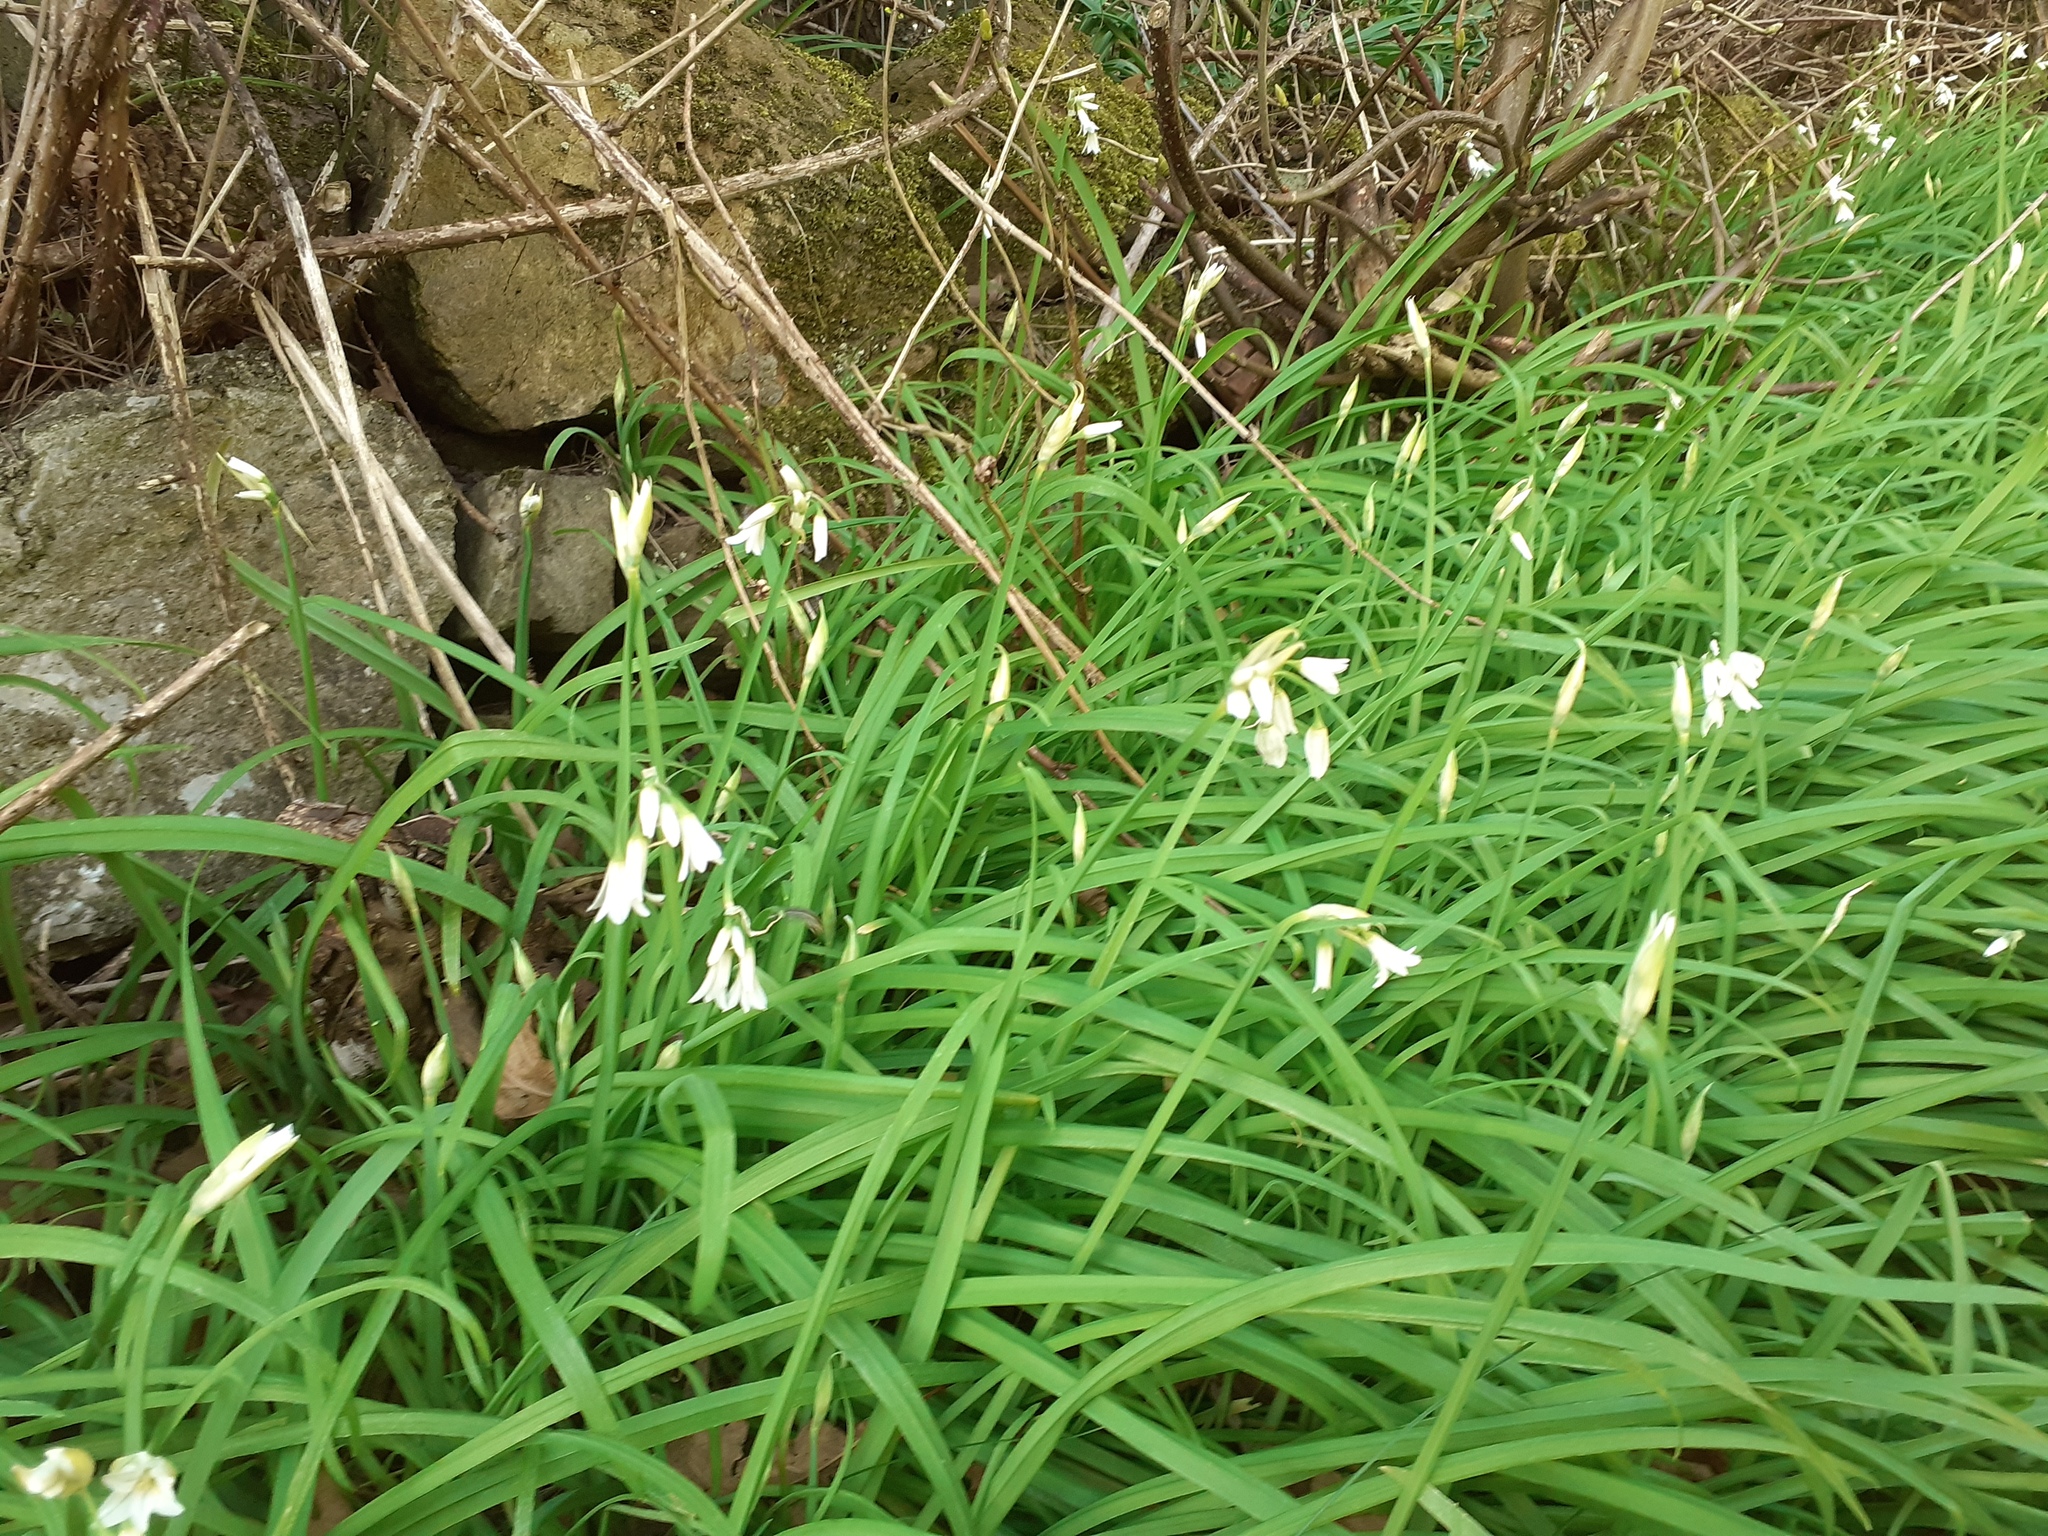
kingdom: Plantae
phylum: Tracheophyta
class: Liliopsida
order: Asparagales
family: Amaryllidaceae
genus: Allium
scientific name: Allium triquetrum
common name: Three-cornered garlic
